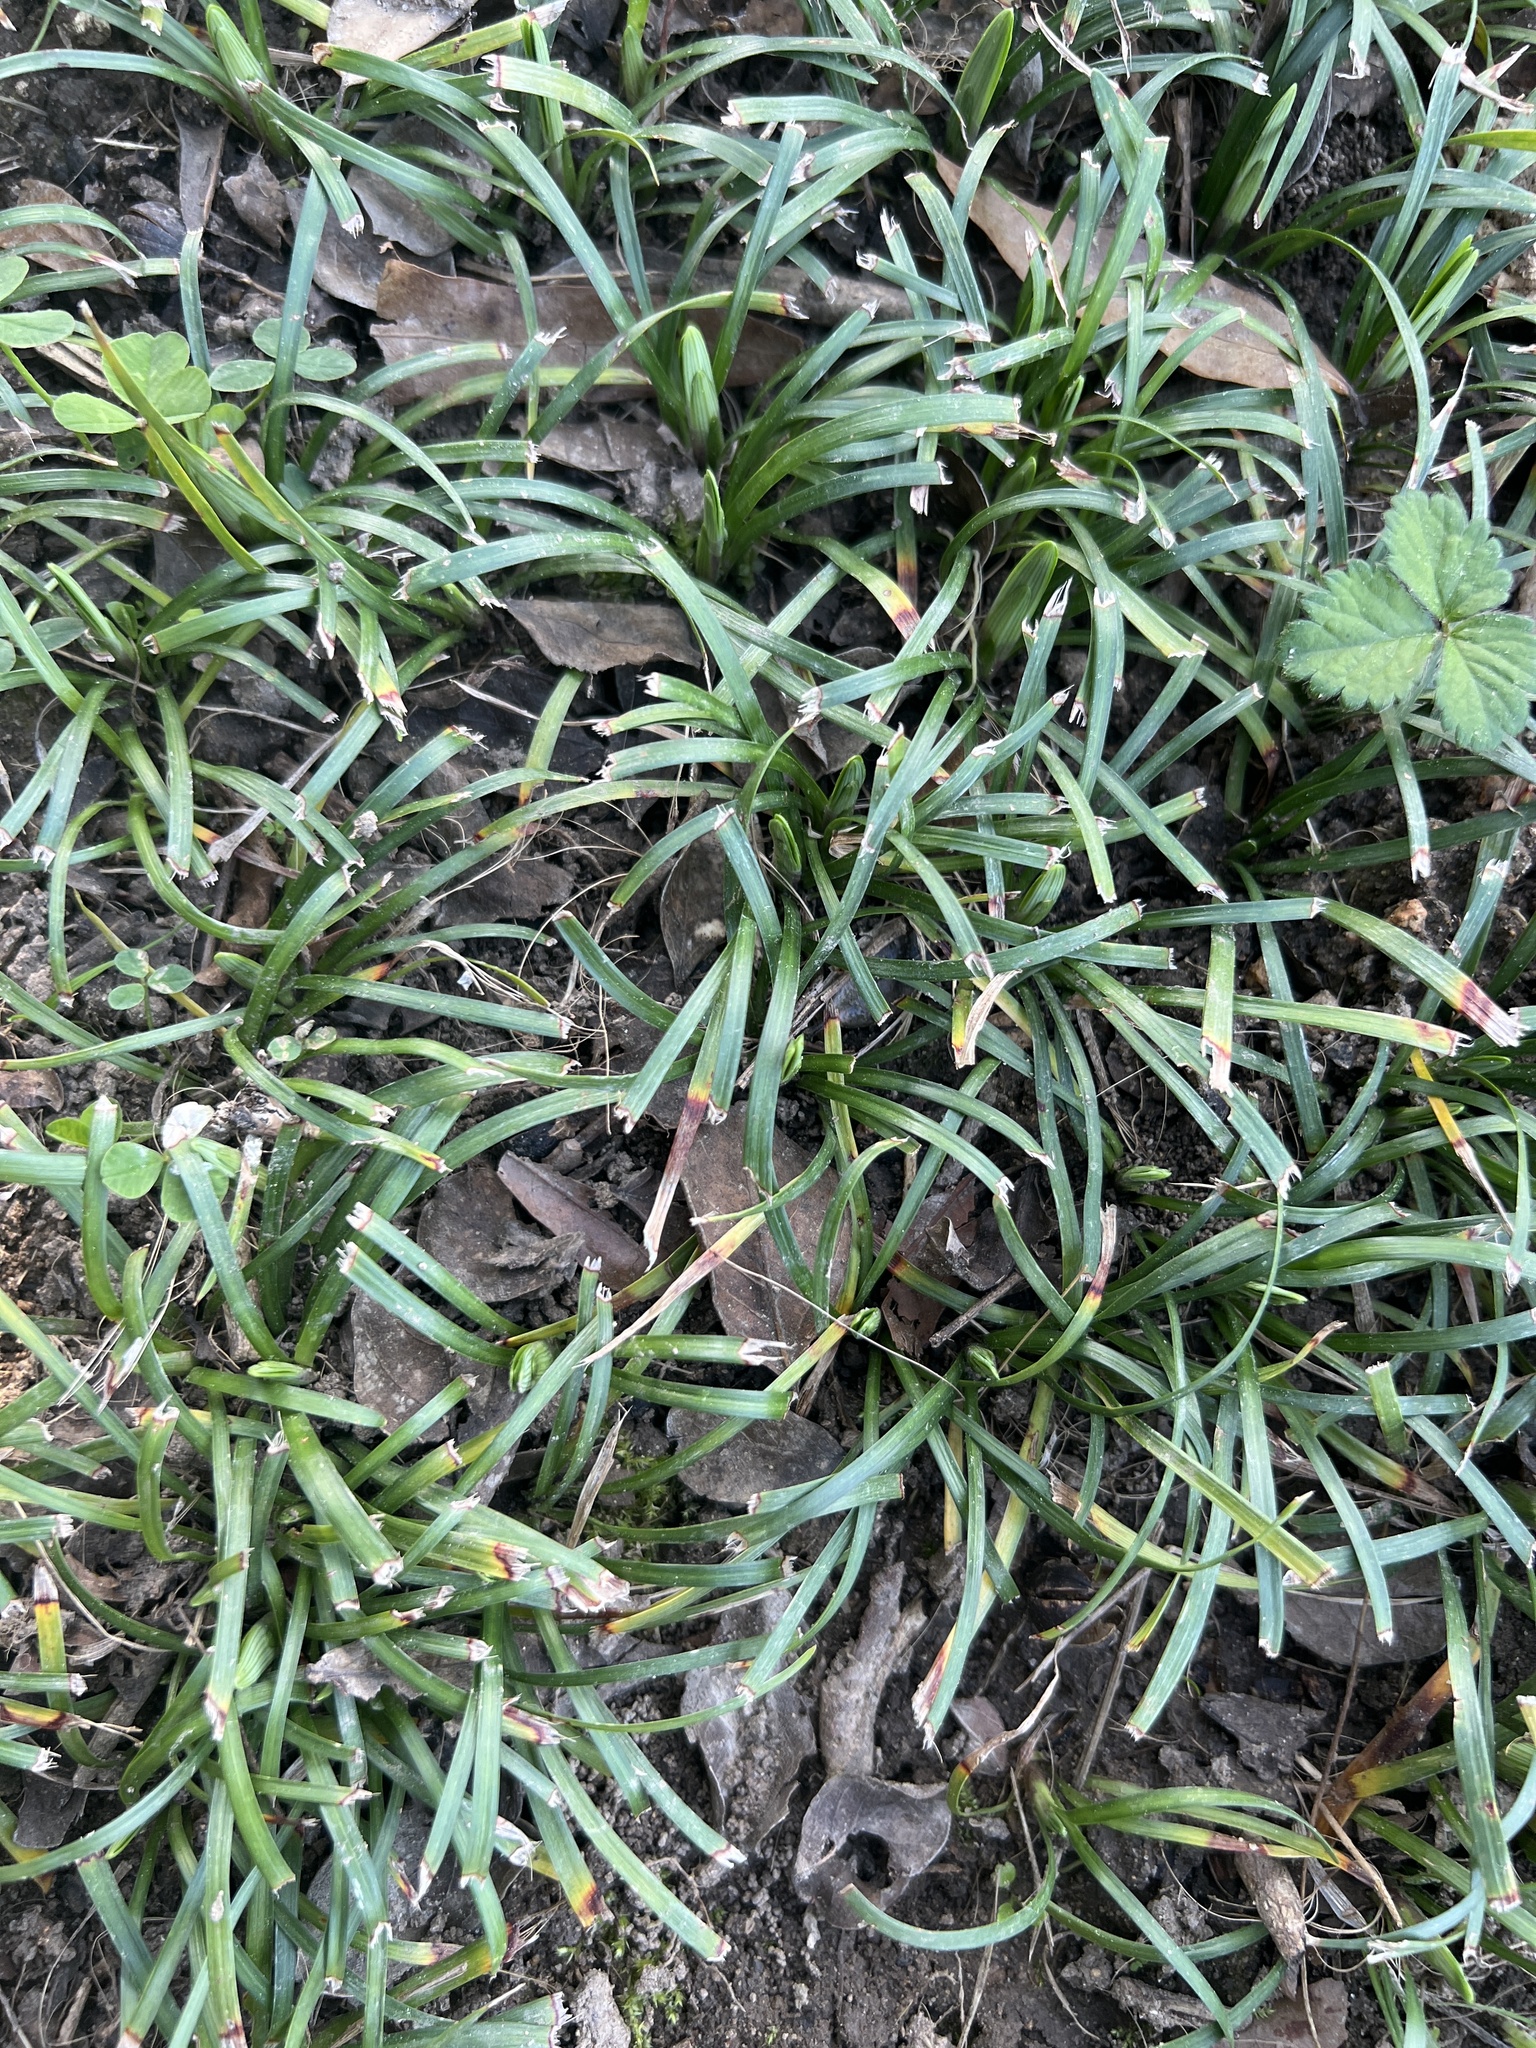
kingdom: Plantae
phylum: Tracheophyta
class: Liliopsida
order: Asparagales
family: Asparagaceae
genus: Ophiopogon
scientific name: Ophiopogon japonicus
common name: Dwarf lilyturf
